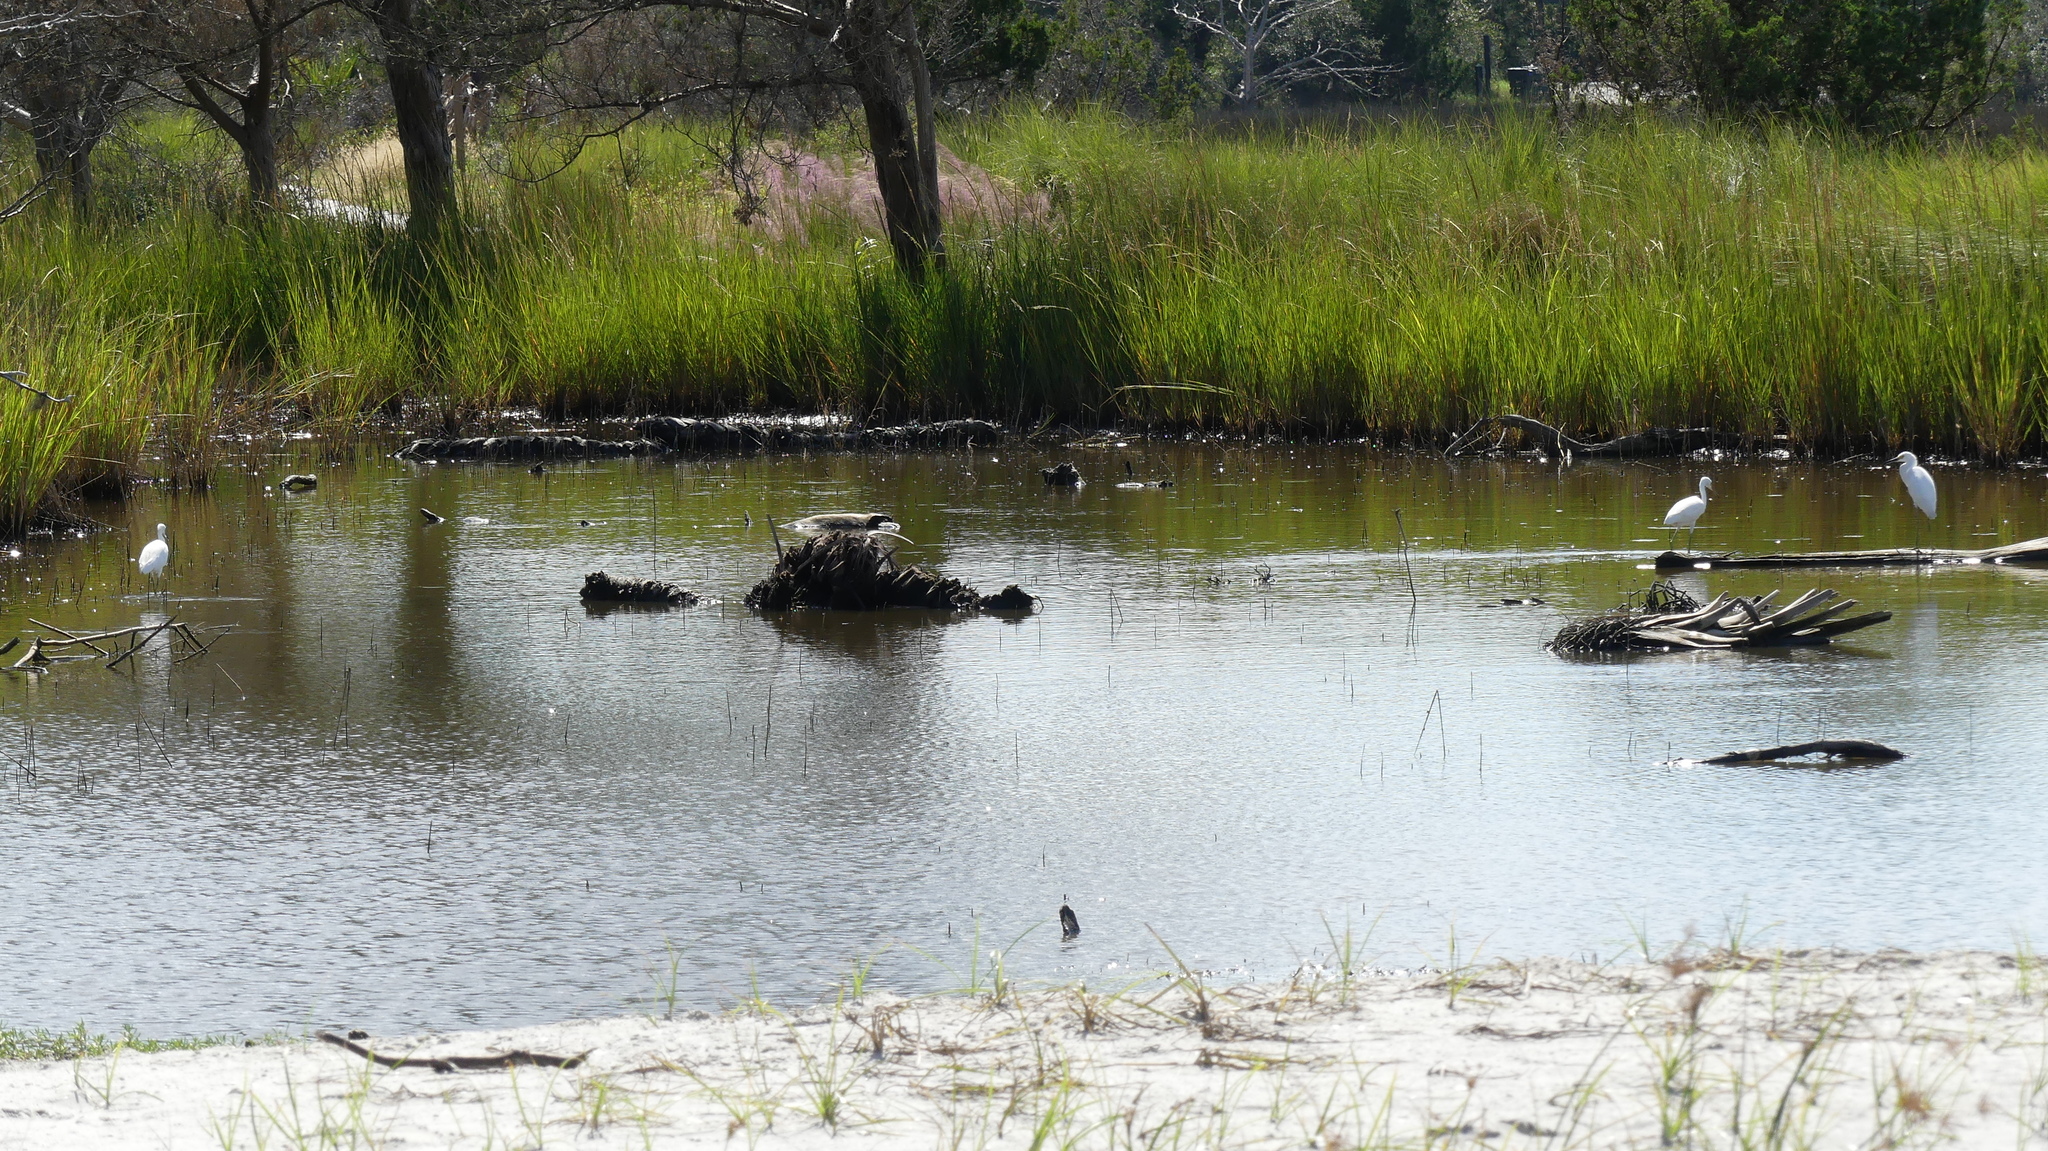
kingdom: Animalia
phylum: Chordata
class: Aves
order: Pelecaniformes
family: Ardeidae
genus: Egretta
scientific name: Egretta thula
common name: Snowy egret
